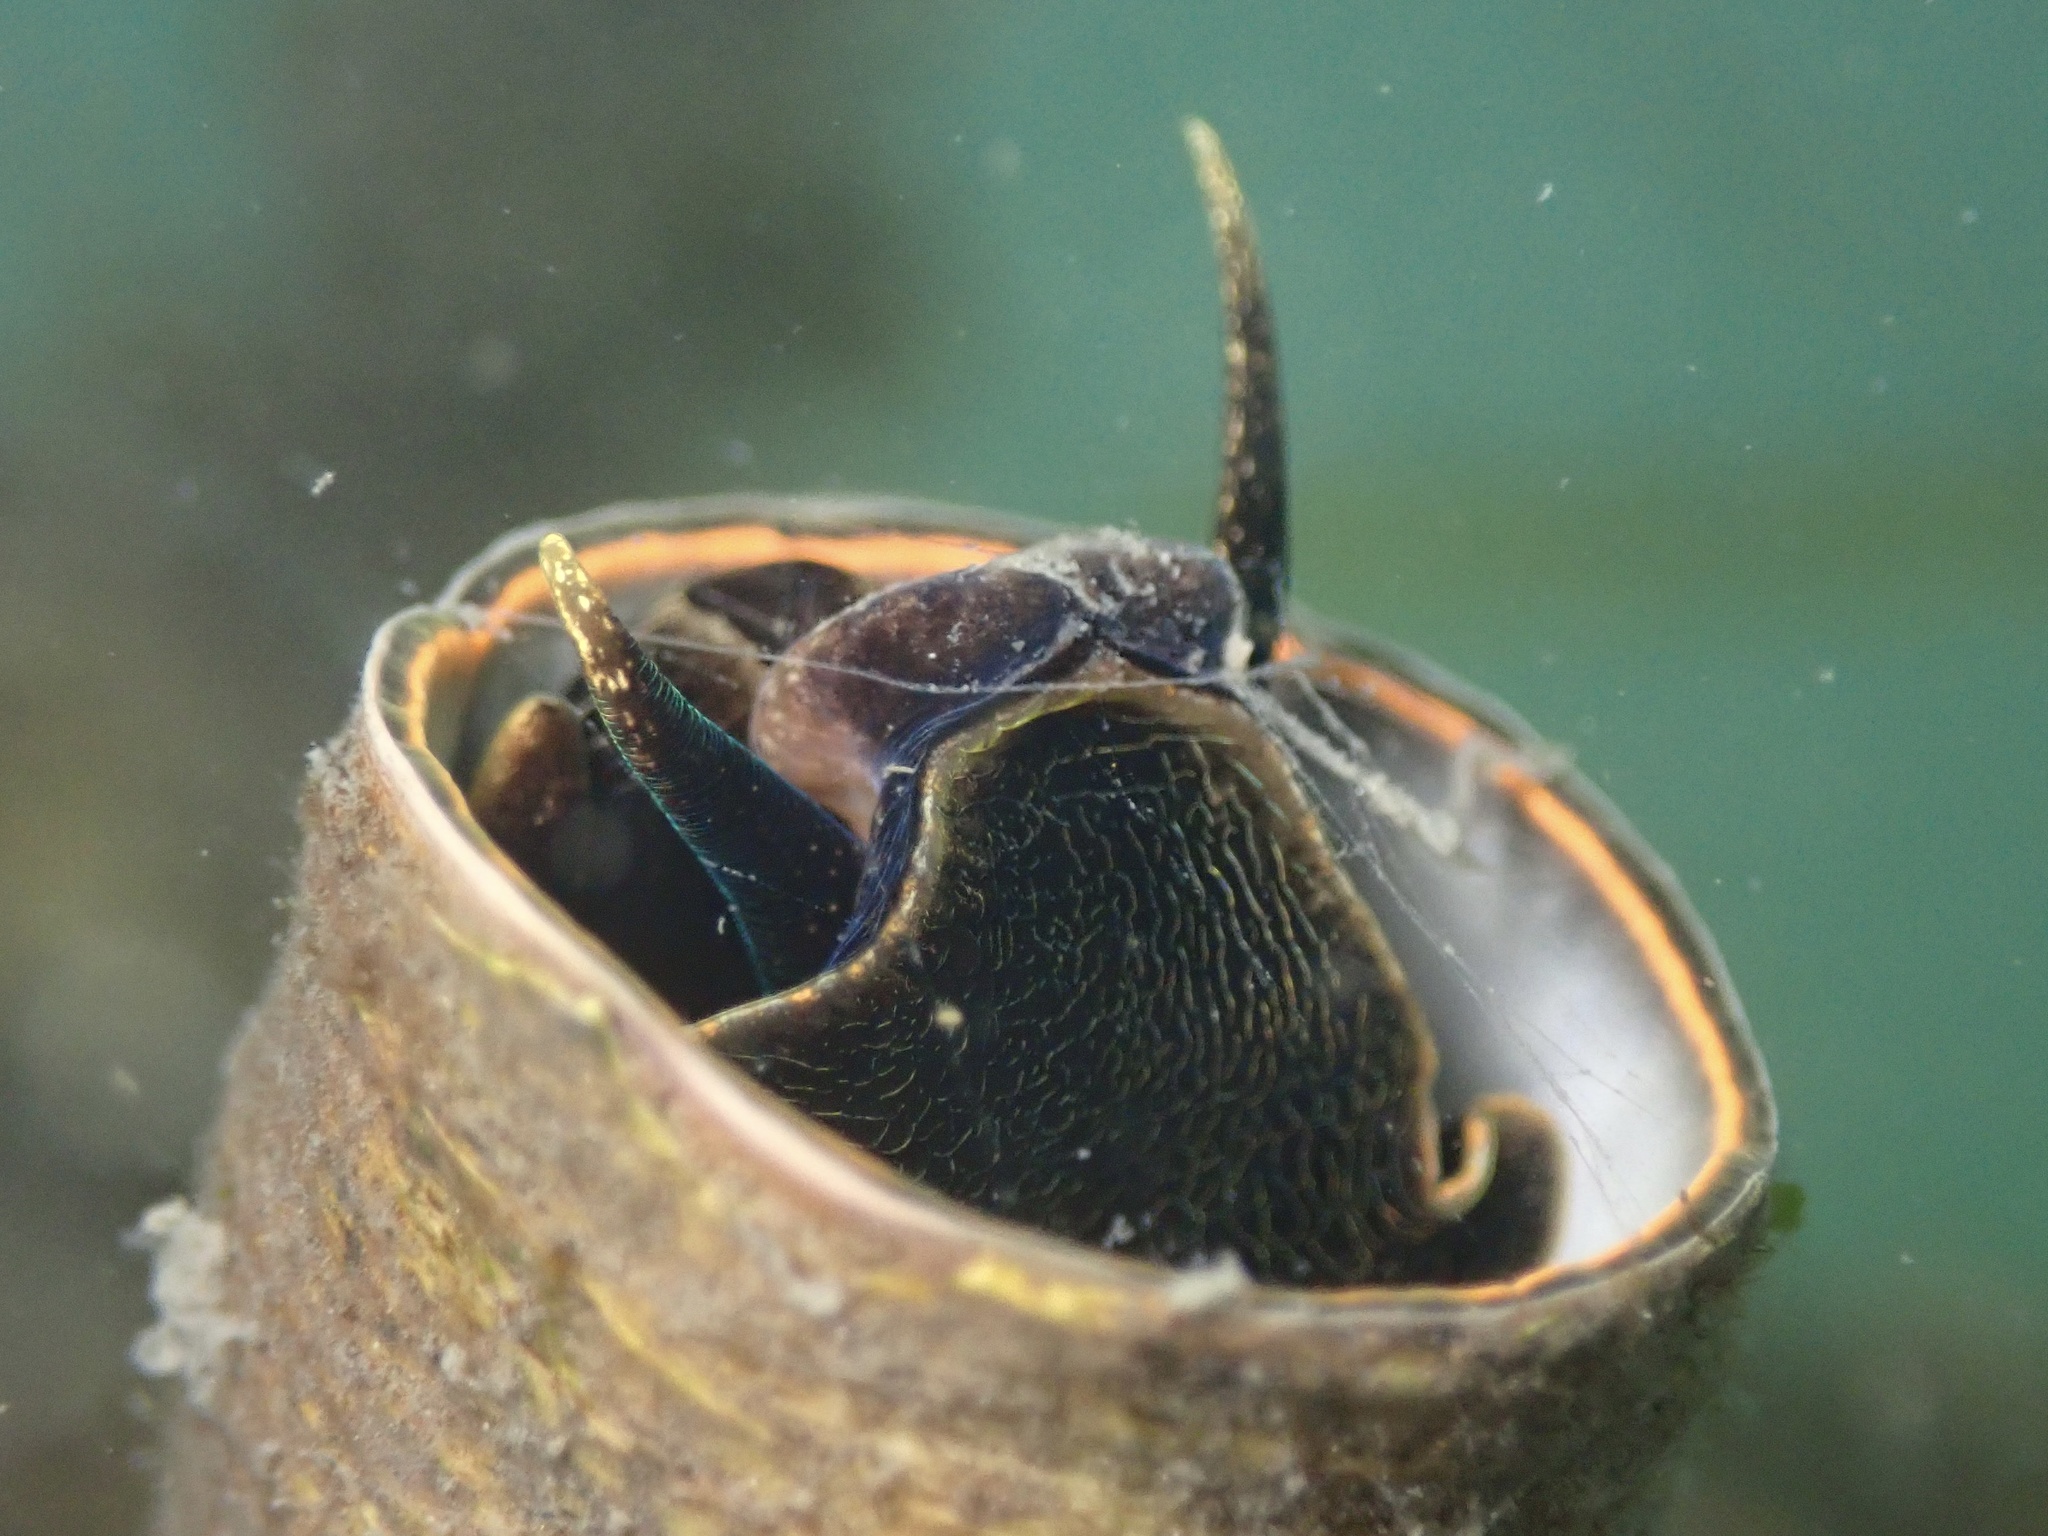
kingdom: Animalia
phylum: Mollusca
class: Gastropoda
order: Littorinimorpha
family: Vermetidae
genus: Thylacodes
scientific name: Thylacodes squamigerus
